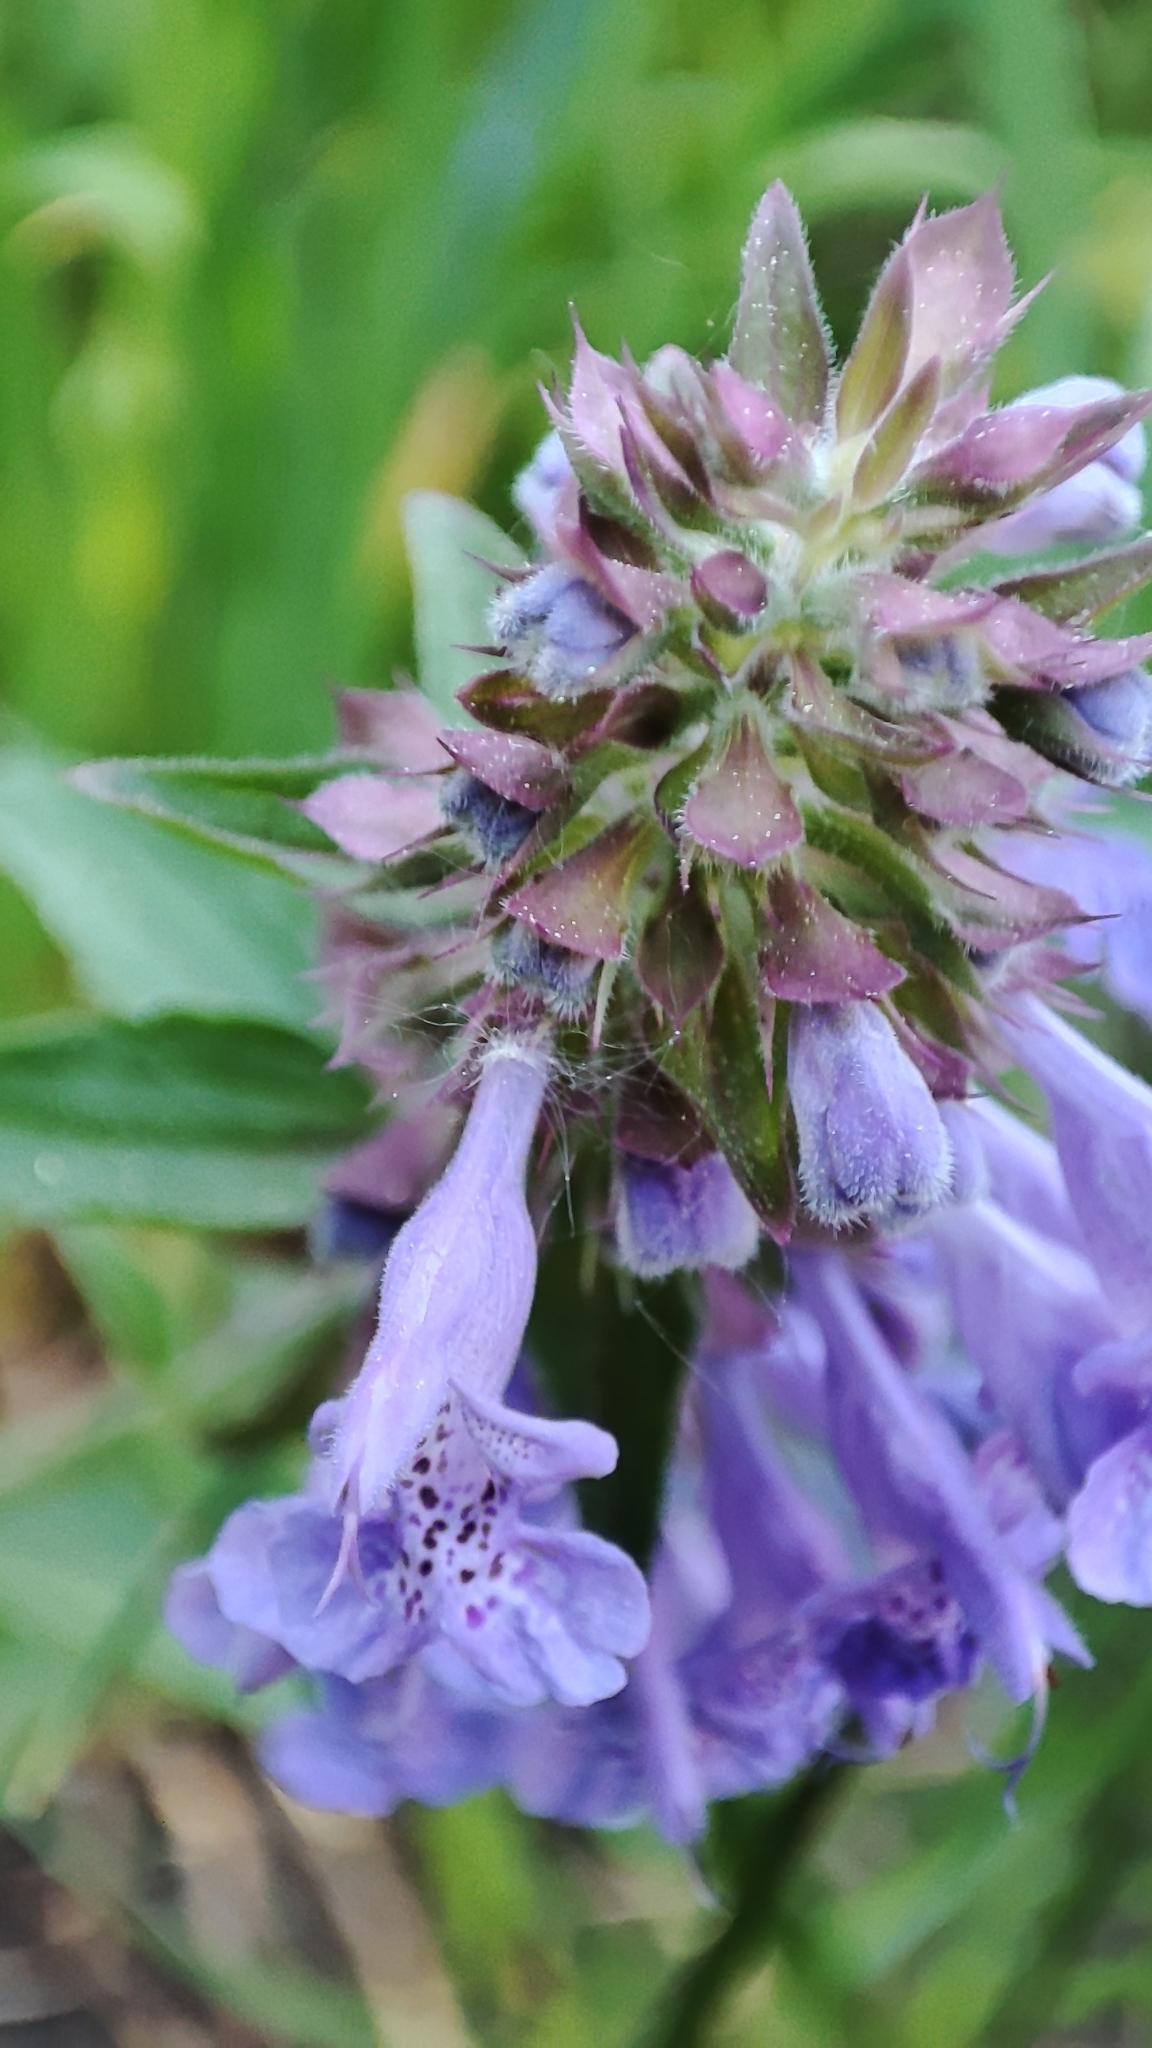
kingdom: Plantae
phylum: Tracheophyta
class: Magnoliopsida
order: Lamiales
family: Lamiaceae
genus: Dracocephalum
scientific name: Dracocephalum nutans
